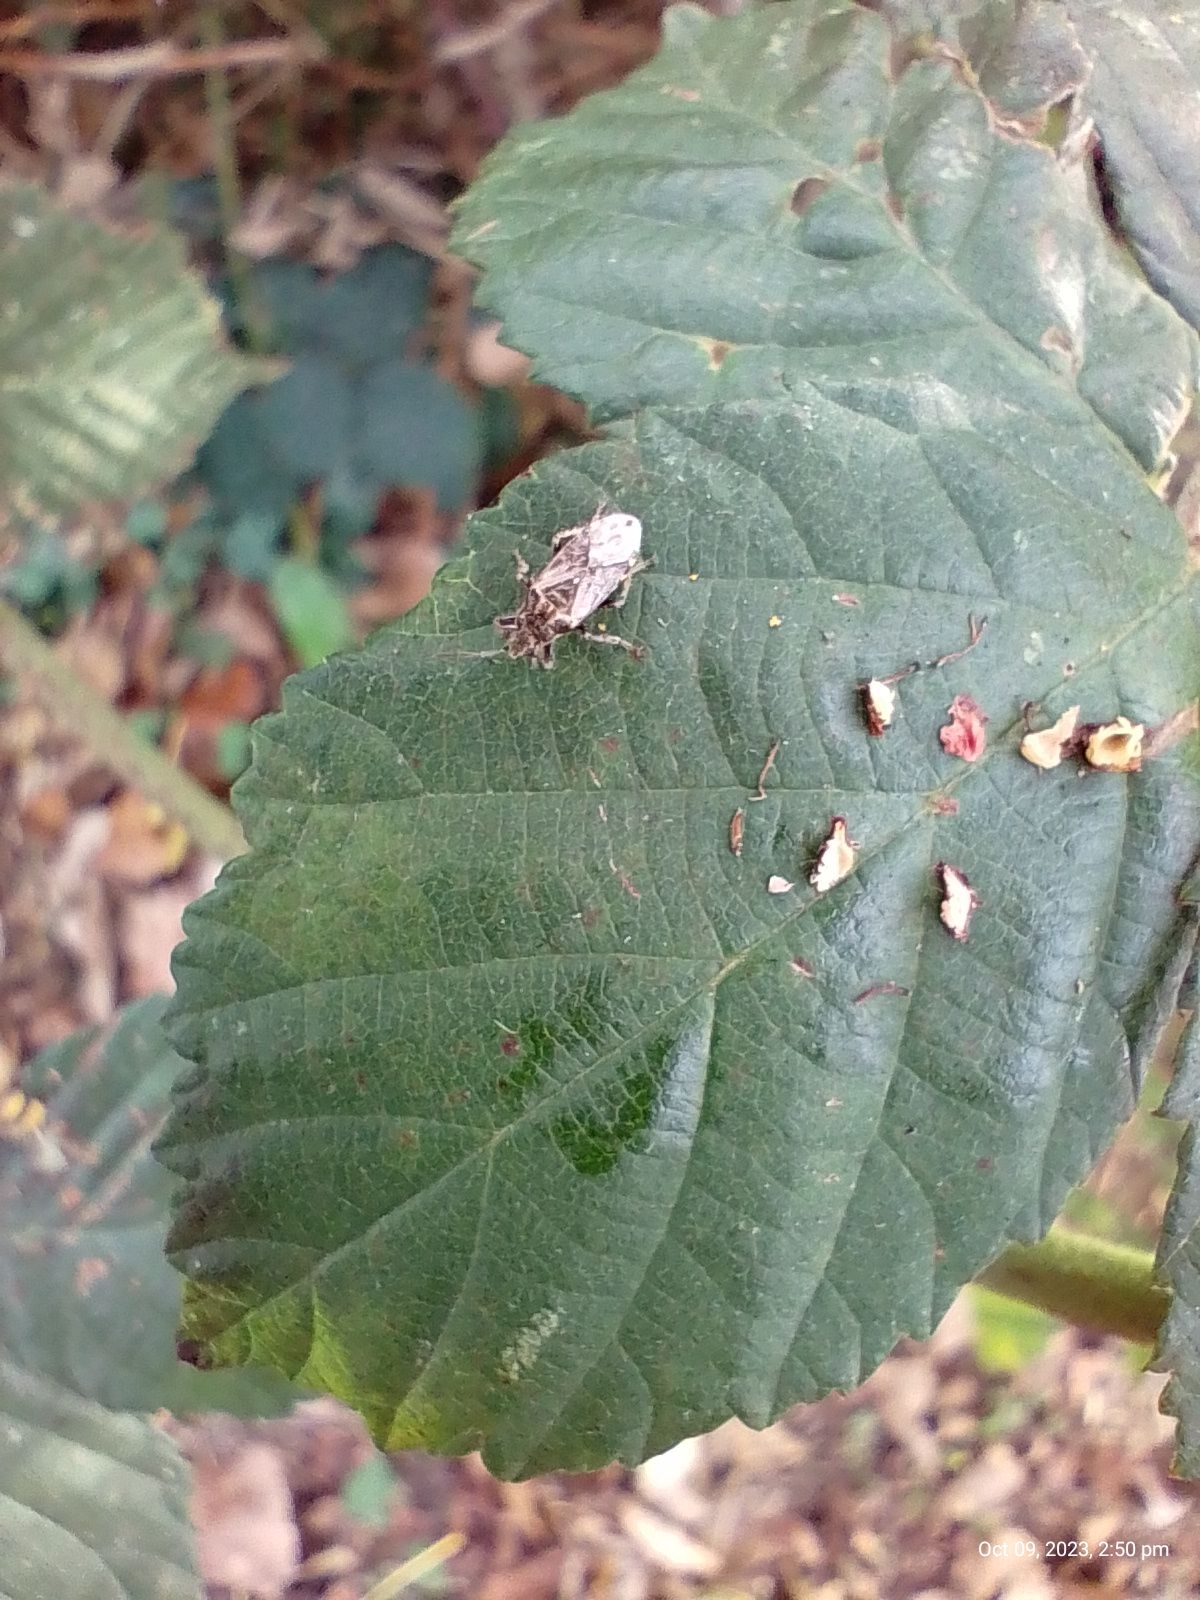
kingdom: Animalia
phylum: Arthropoda
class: Insecta
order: Hemiptera
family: Heterogastridae
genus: Heterogaster
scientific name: Heterogaster urticae
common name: Seed bug
